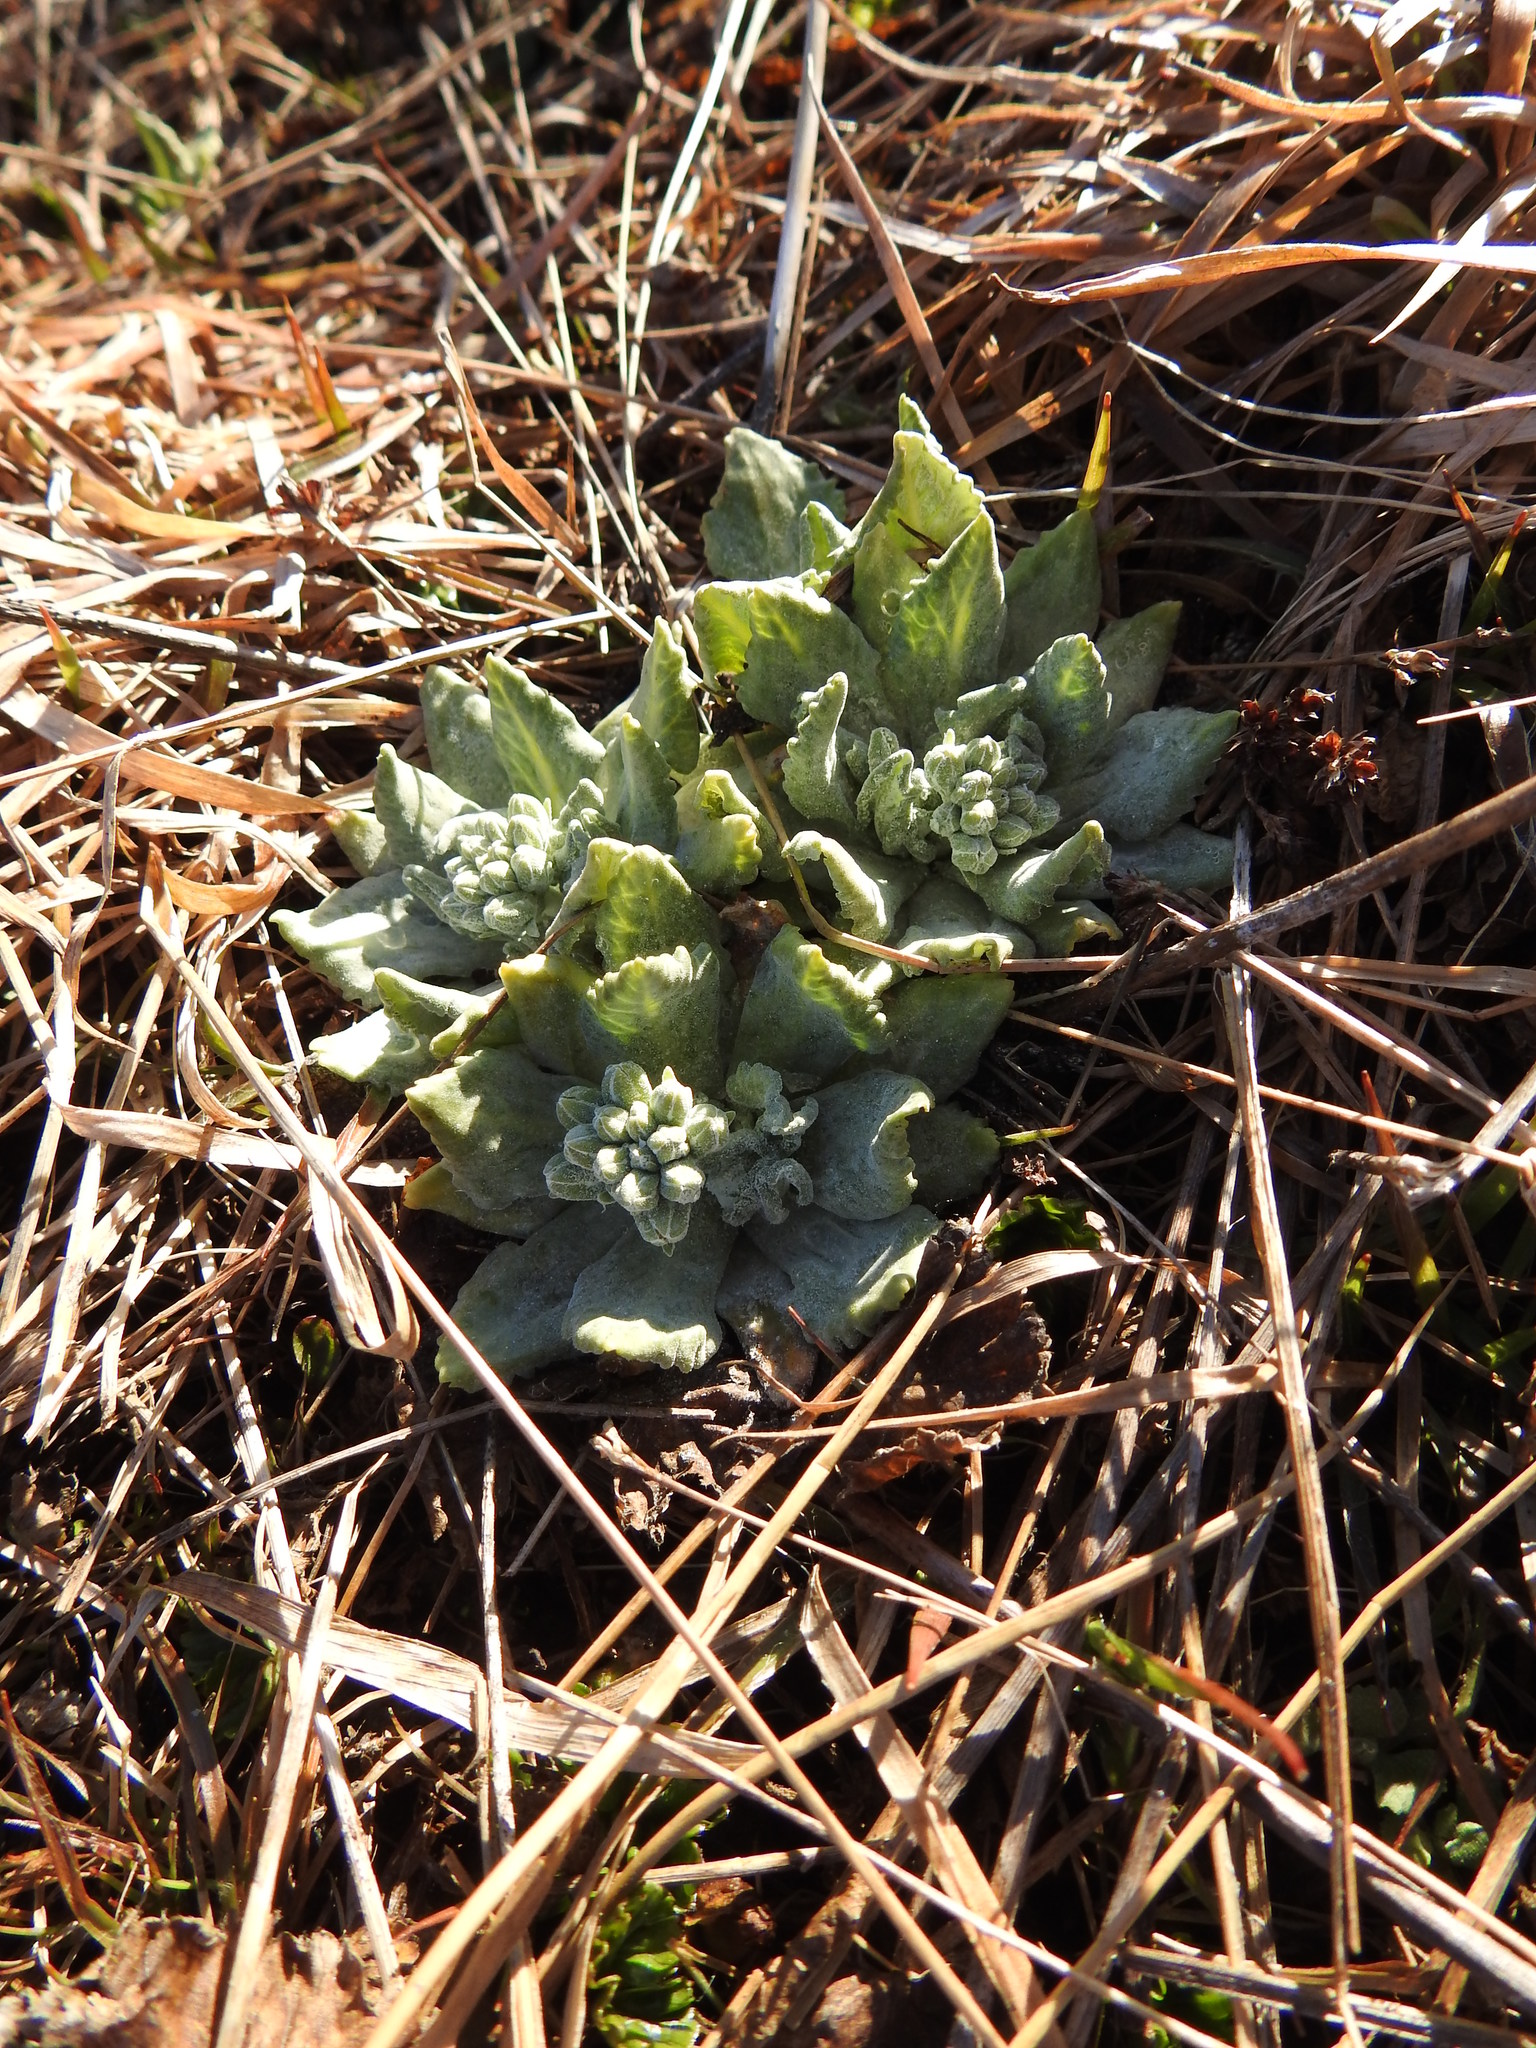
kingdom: Plantae
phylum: Tracheophyta
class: Magnoliopsida
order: Ericales
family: Primulaceae
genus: Primula
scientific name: Primula magellanica
